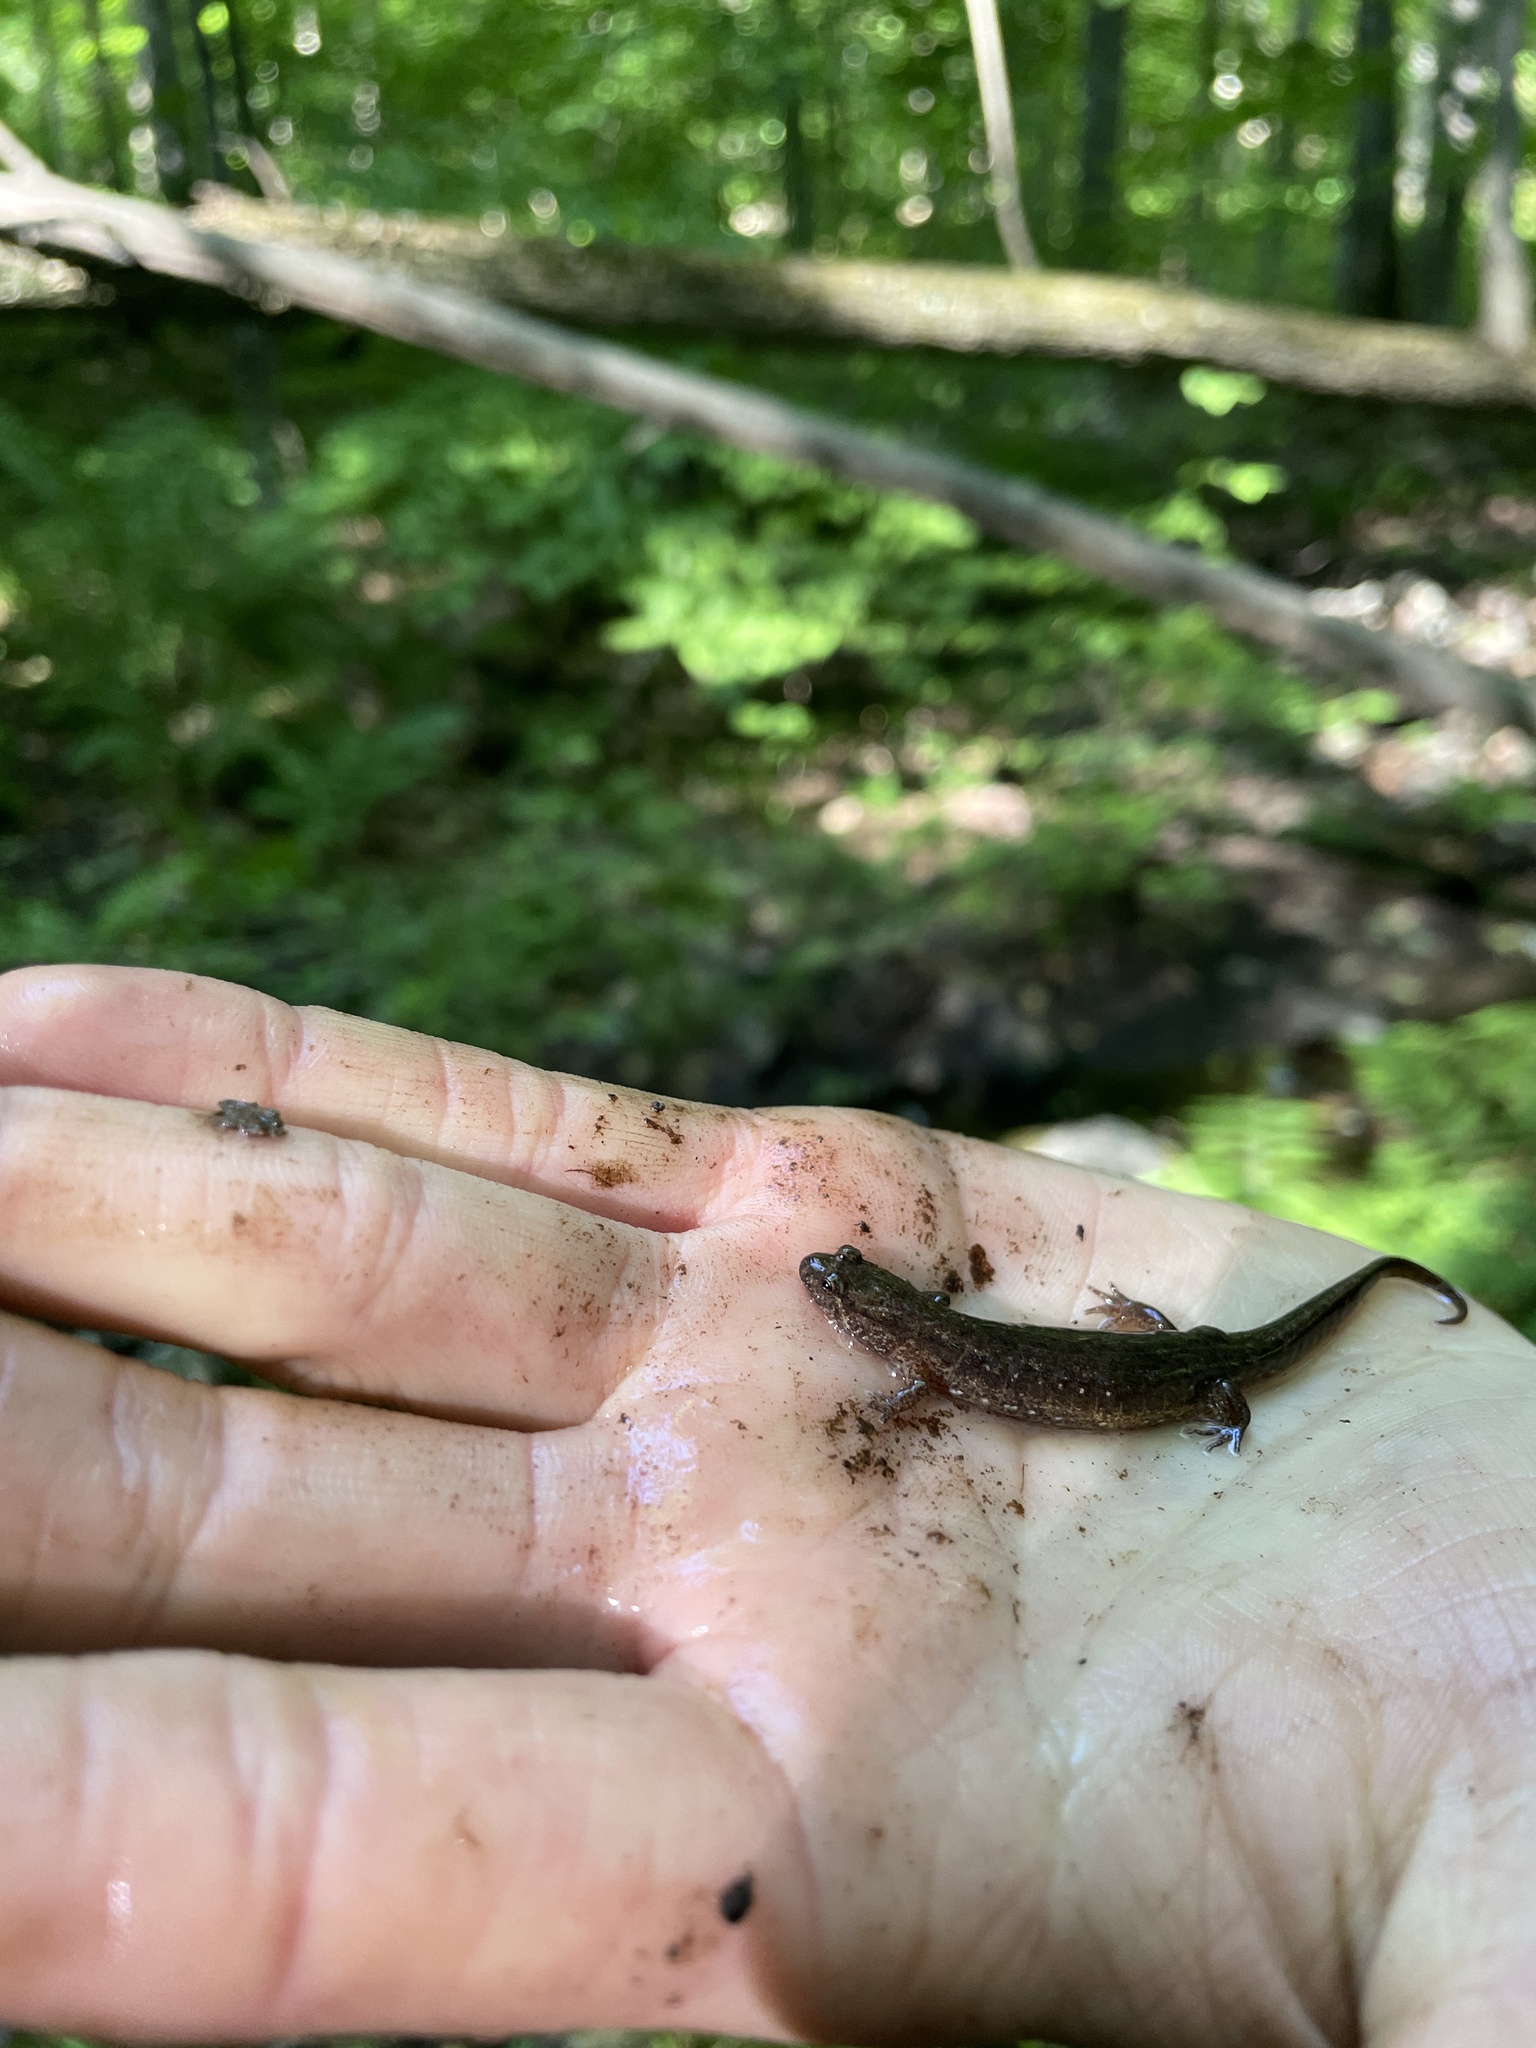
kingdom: Animalia
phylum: Chordata
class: Amphibia
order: Caudata
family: Plethodontidae
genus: Desmognathus
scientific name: Desmognathus fuscus
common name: Northern dusky salamander
